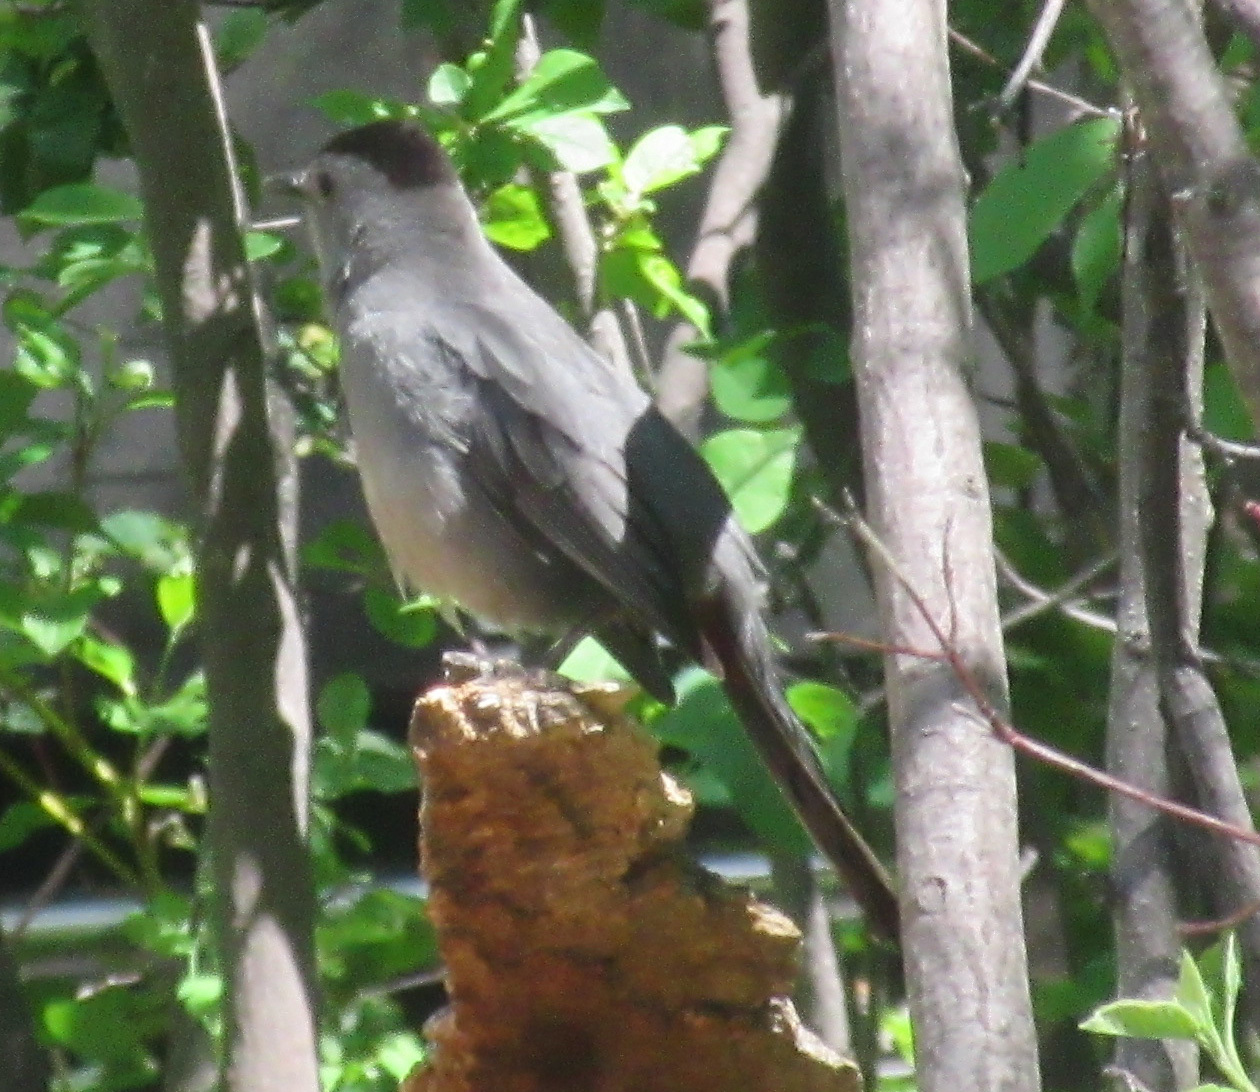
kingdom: Animalia
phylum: Chordata
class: Aves
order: Passeriformes
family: Mimidae
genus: Dumetella
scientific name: Dumetella carolinensis
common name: Gray catbird
